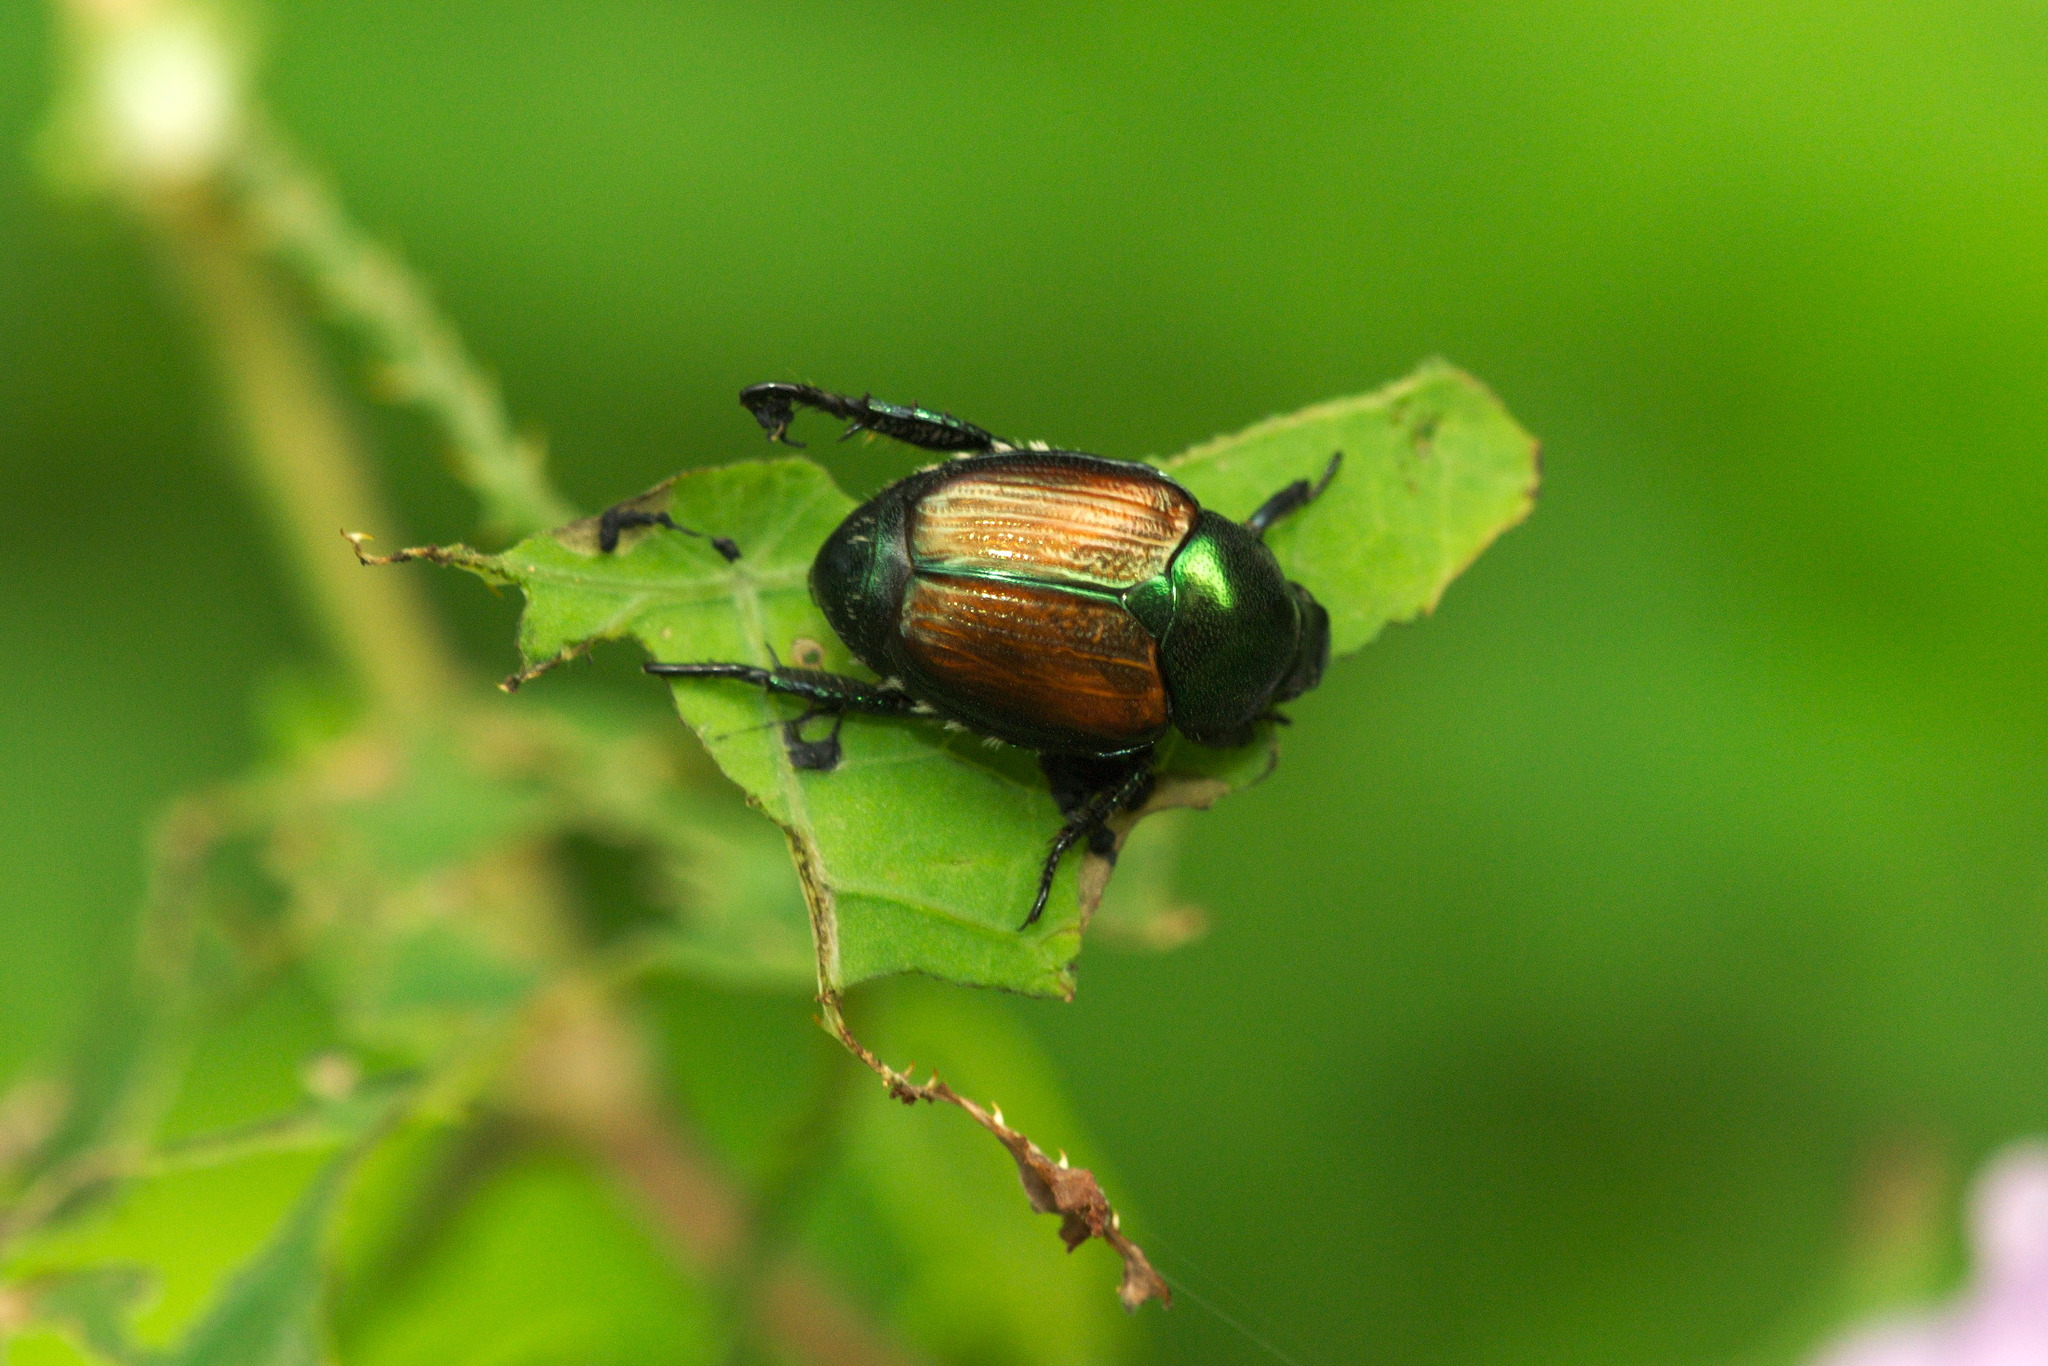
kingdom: Animalia
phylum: Arthropoda
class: Insecta
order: Coleoptera
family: Scarabaeidae
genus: Popillia
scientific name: Popillia japonica
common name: Japanese beetle
